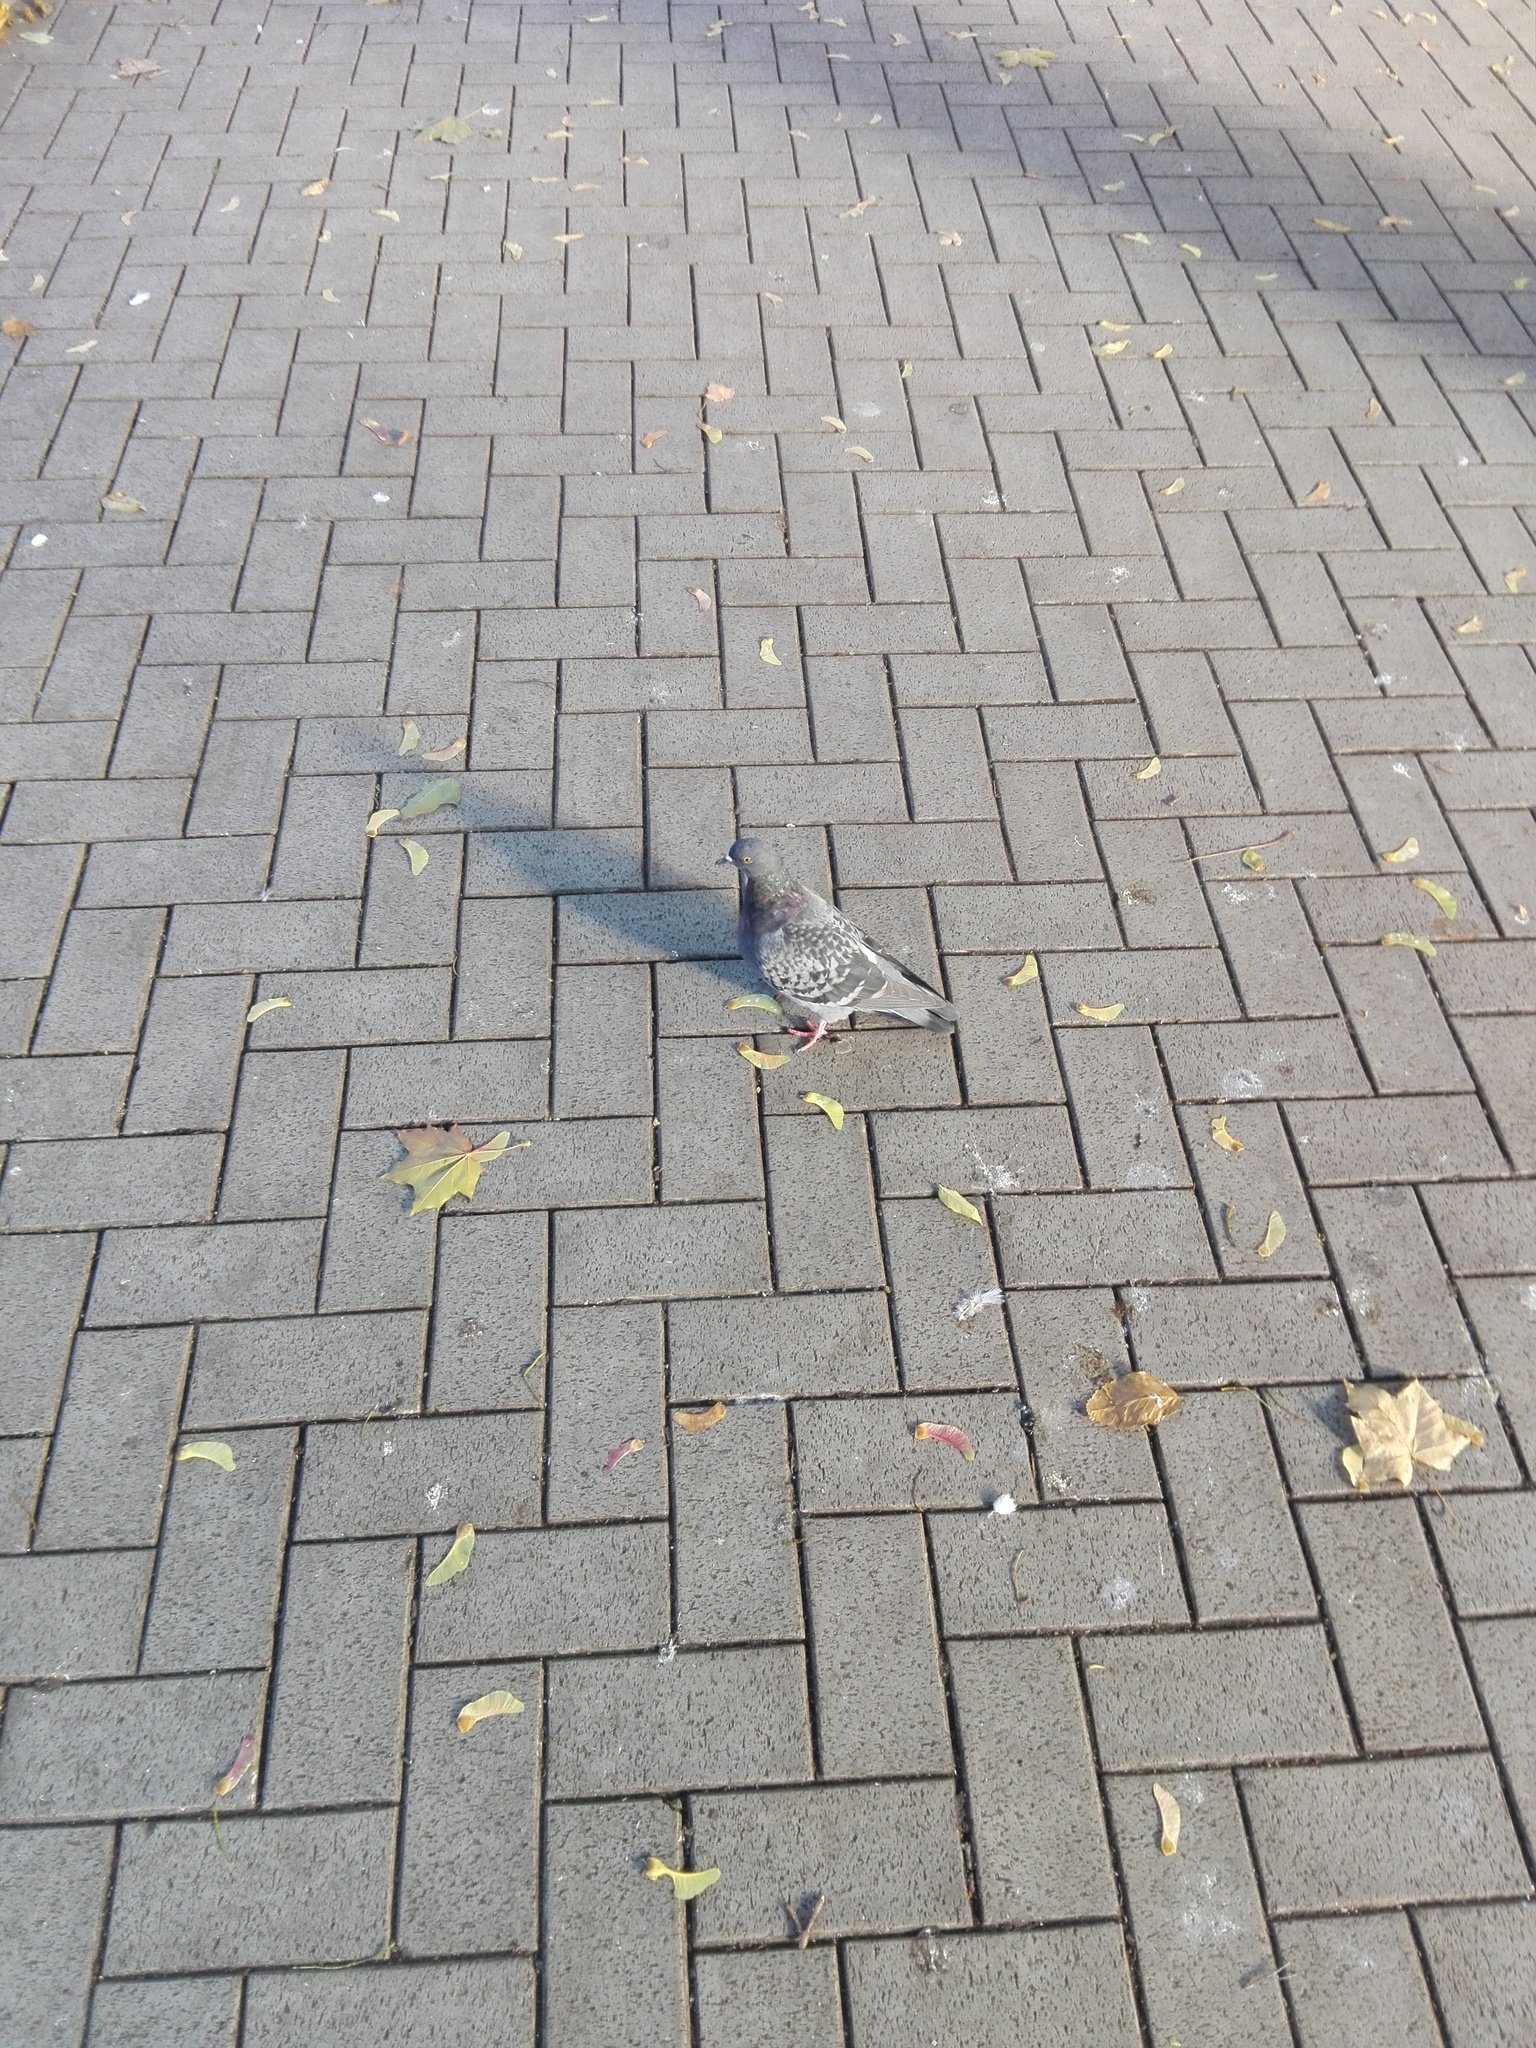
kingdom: Animalia
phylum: Chordata
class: Aves
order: Columbiformes
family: Columbidae
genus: Columba
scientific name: Columba livia
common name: Rock pigeon
